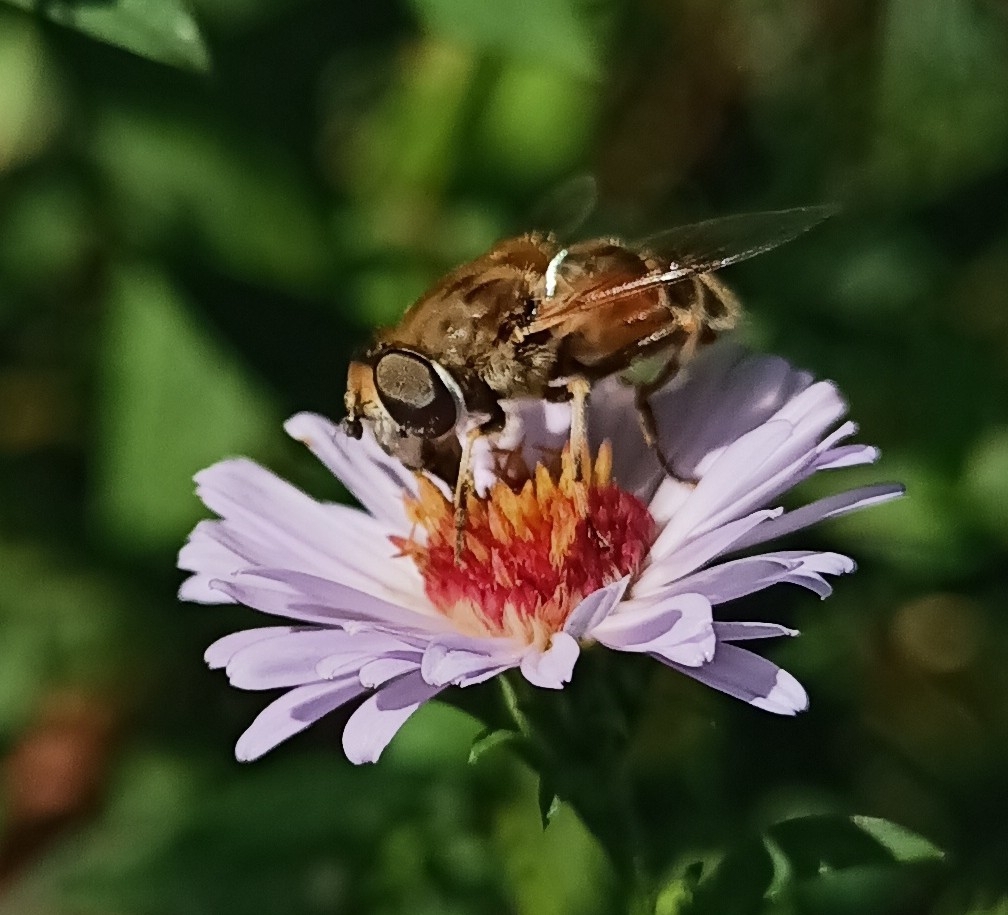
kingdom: Animalia
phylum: Arthropoda
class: Insecta
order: Diptera
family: Syrphidae
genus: Eristalis
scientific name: Eristalis arbustorum
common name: Hover fly
